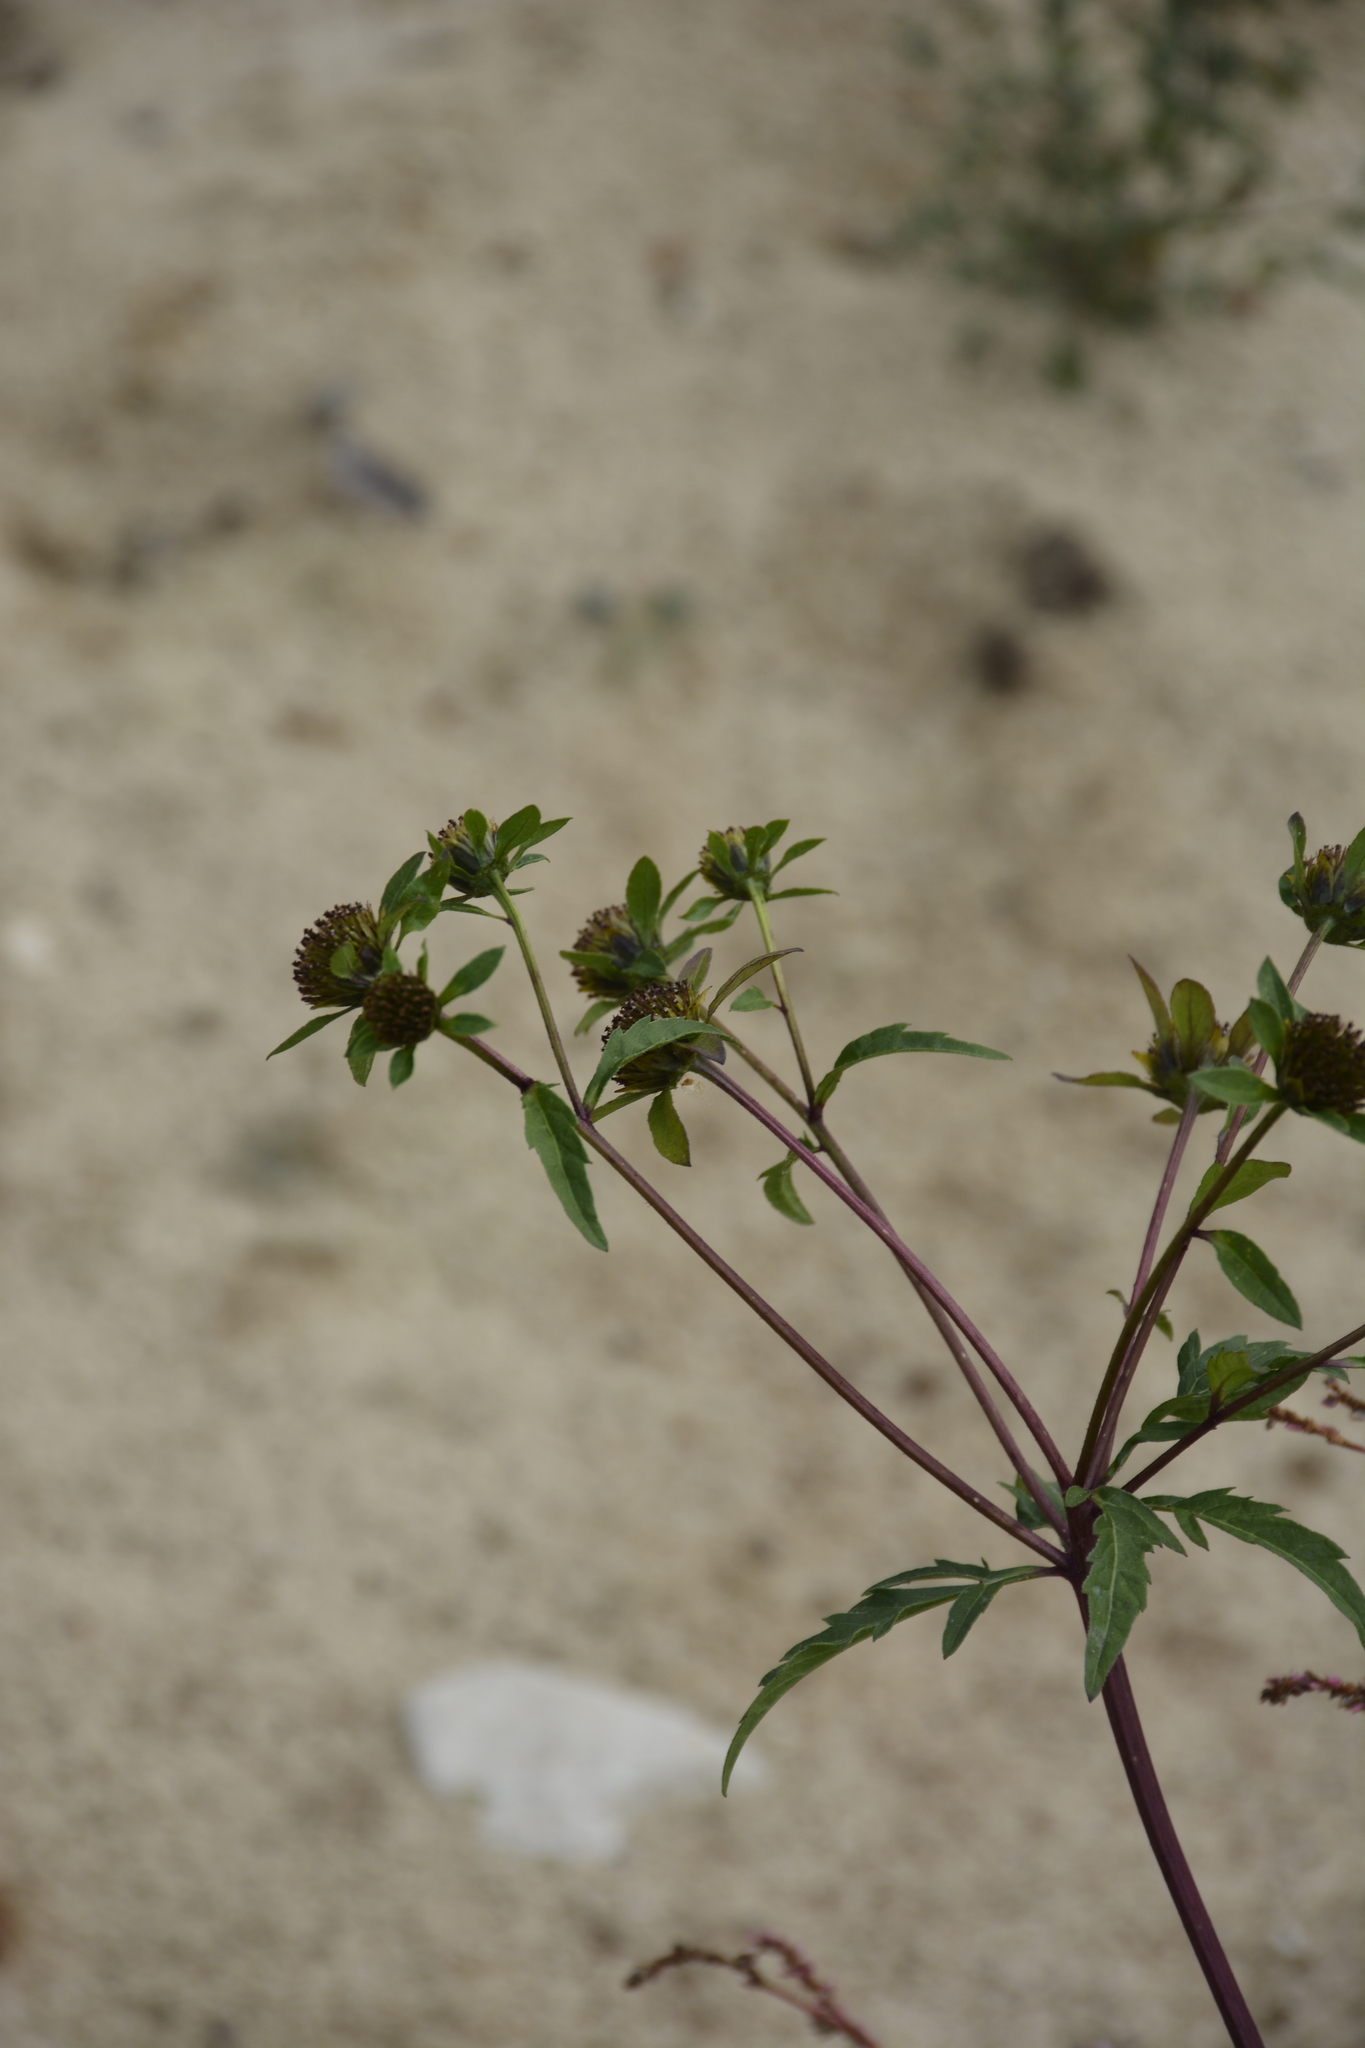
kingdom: Plantae
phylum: Tracheophyta
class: Magnoliopsida
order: Asterales
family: Asteraceae
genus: Bidens
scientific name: Bidens tripartita
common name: Trifid bur-marigold
